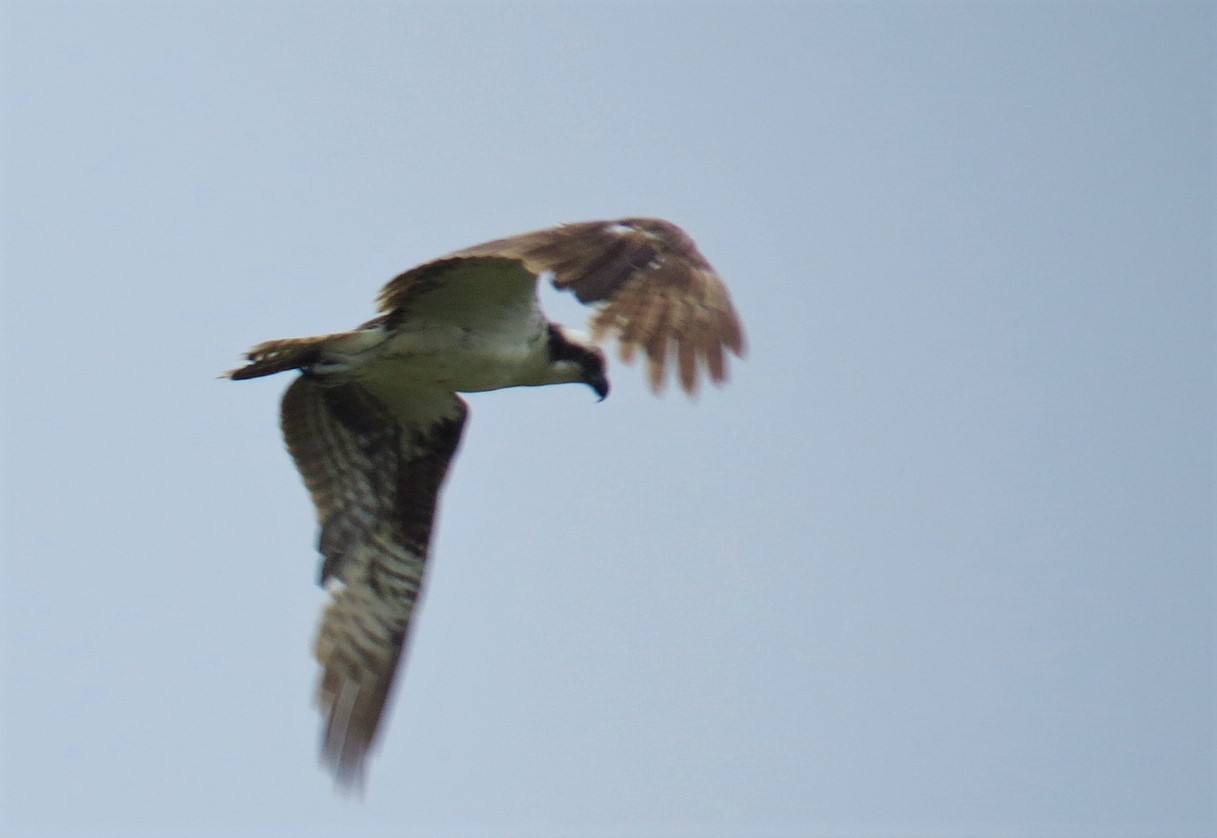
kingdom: Animalia
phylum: Chordata
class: Aves
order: Accipitriformes
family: Pandionidae
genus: Pandion
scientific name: Pandion haliaetus
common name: Osprey
